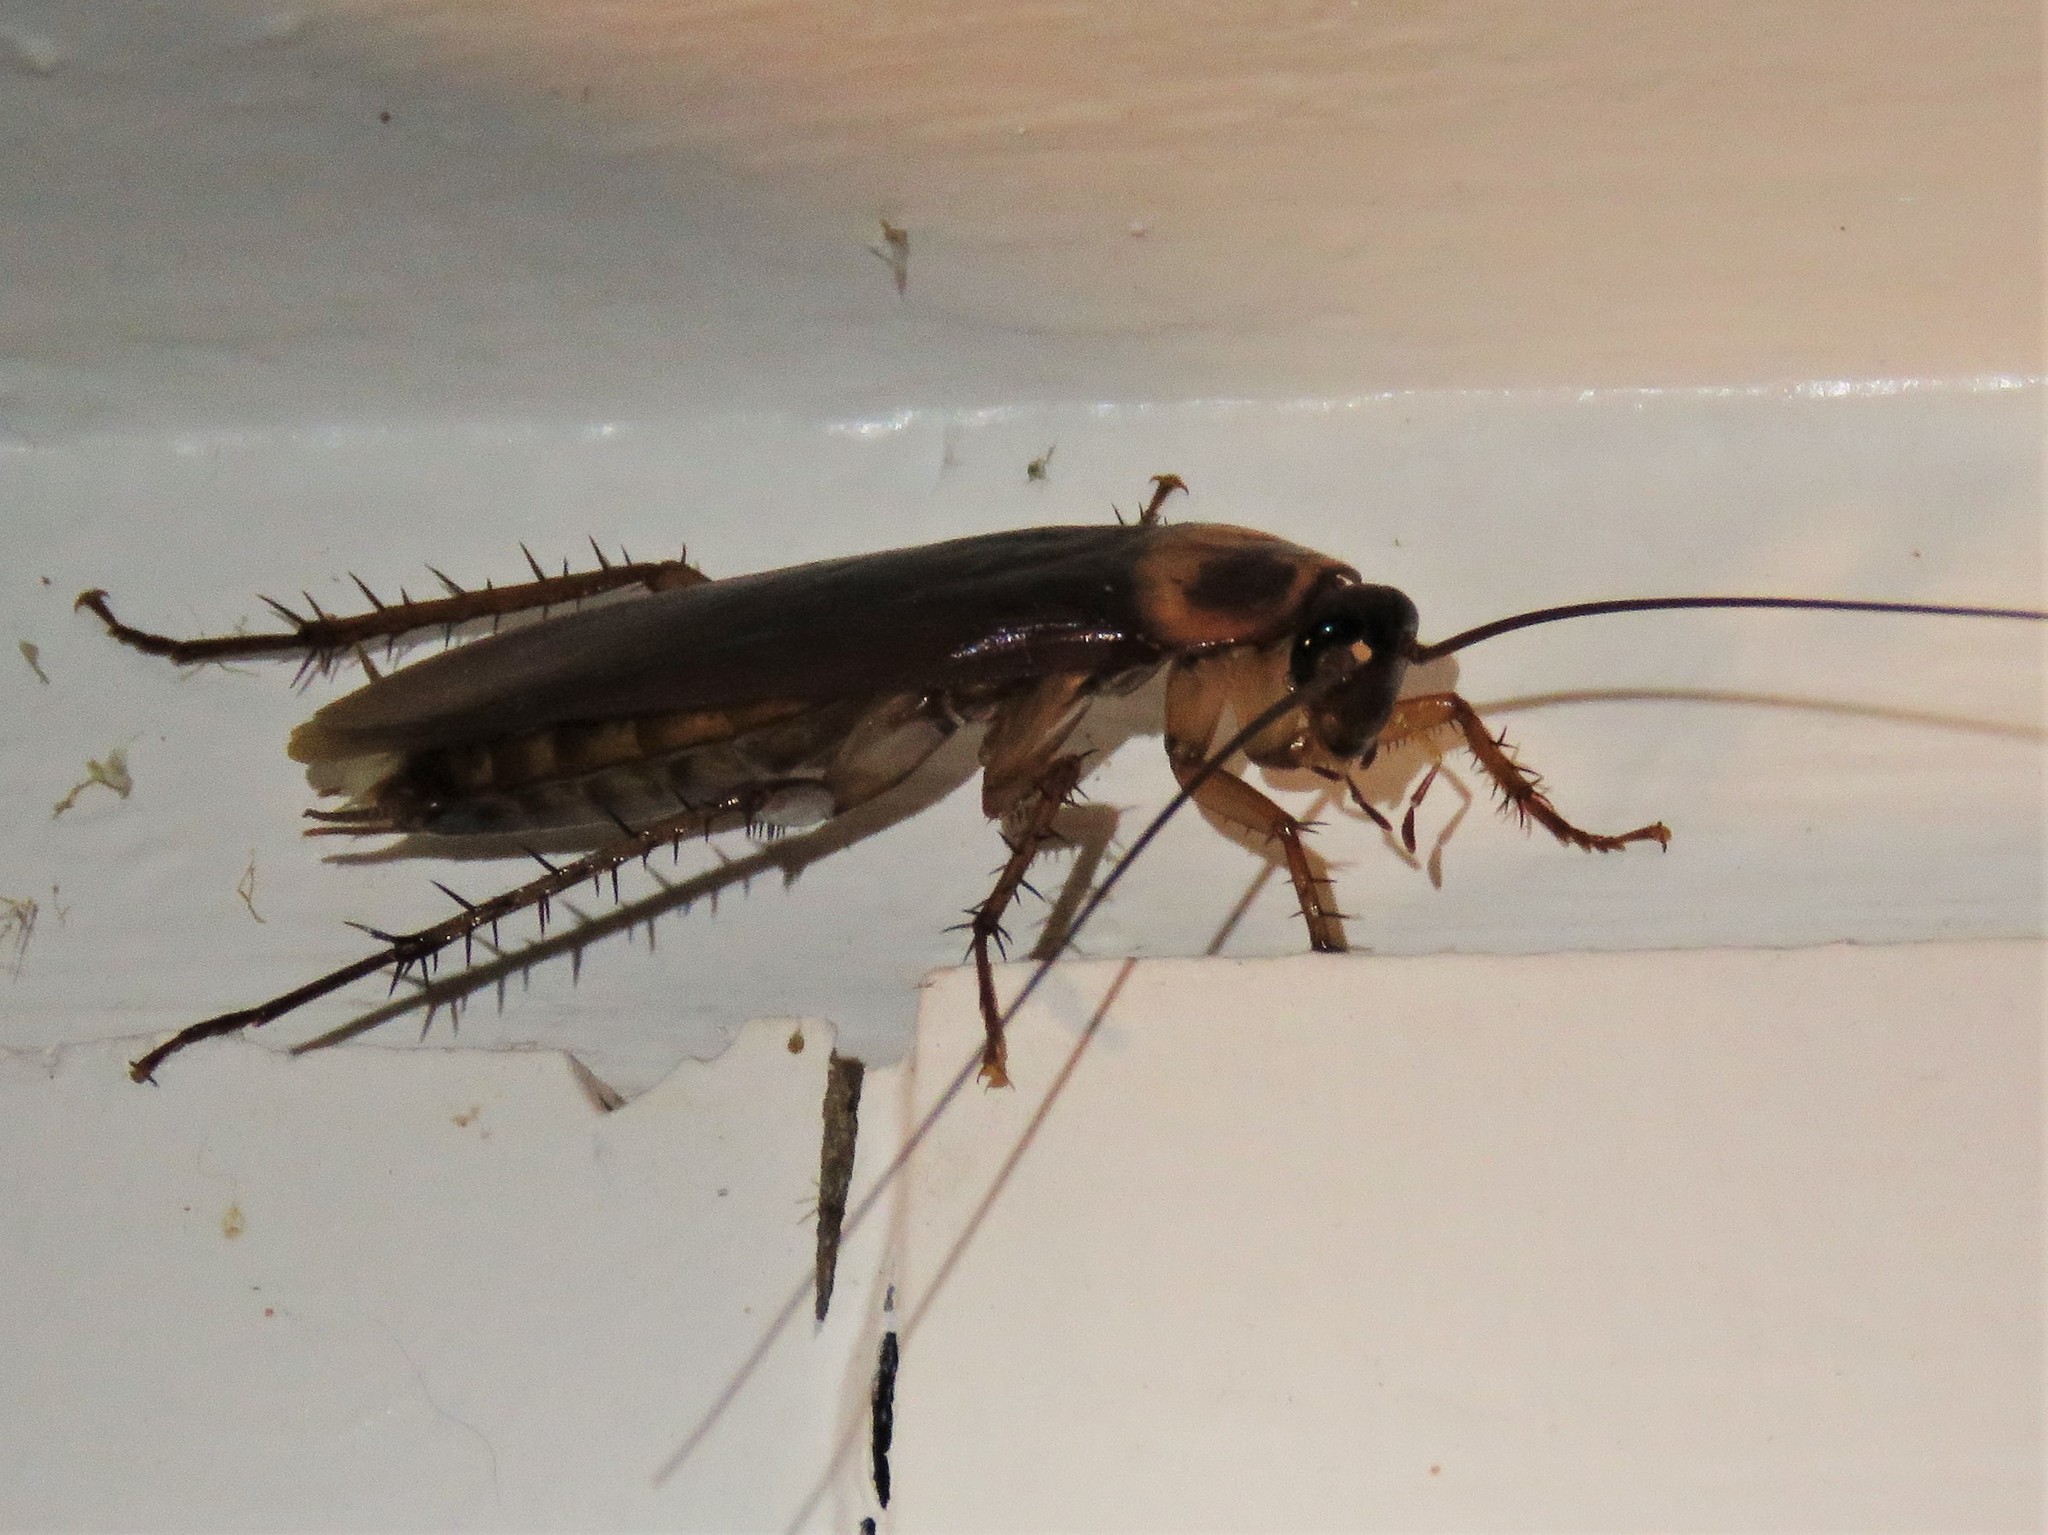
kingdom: Animalia
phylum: Arthropoda
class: Insecta
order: Blattodea
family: Blattidae
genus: Periplaneta
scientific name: Periplaneta americana
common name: American cockroach
